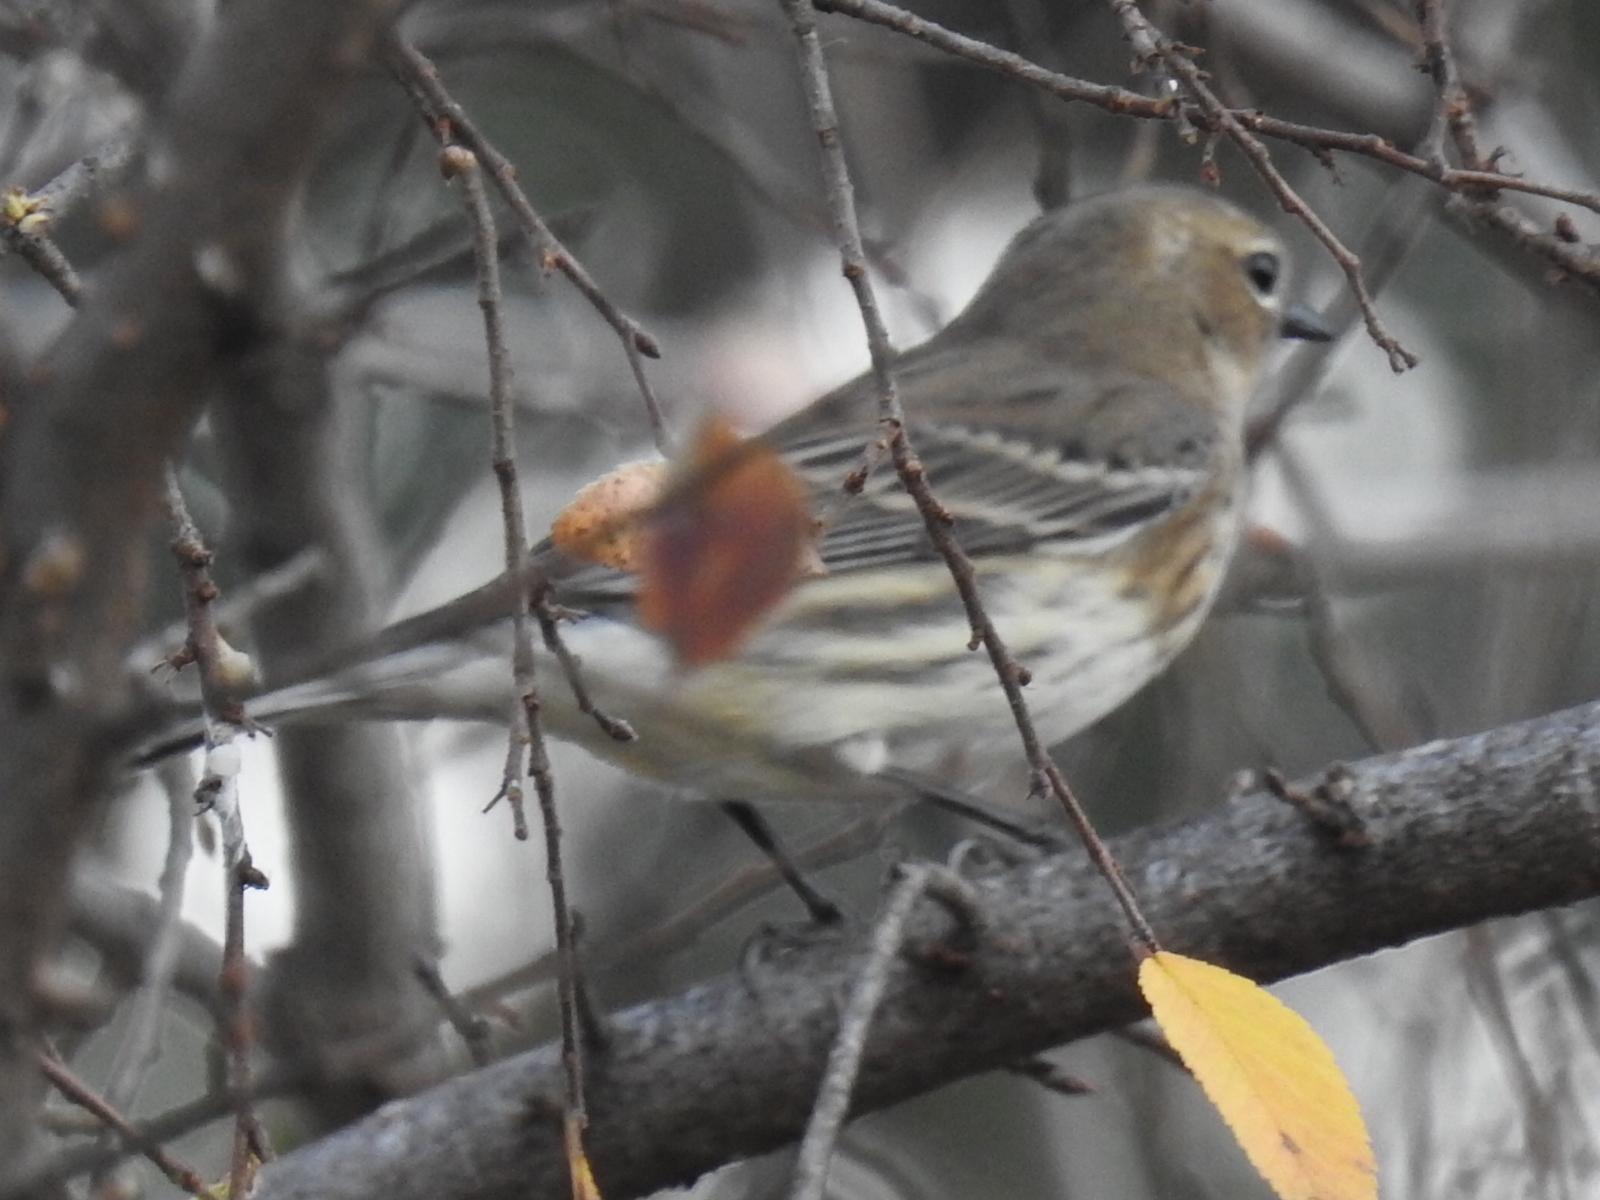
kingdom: Animalia
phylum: Chordata
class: Aves
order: Passeriformes
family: Parulidae
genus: Setophaga
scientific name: Setophaga coronata
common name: Myrtle warbler
